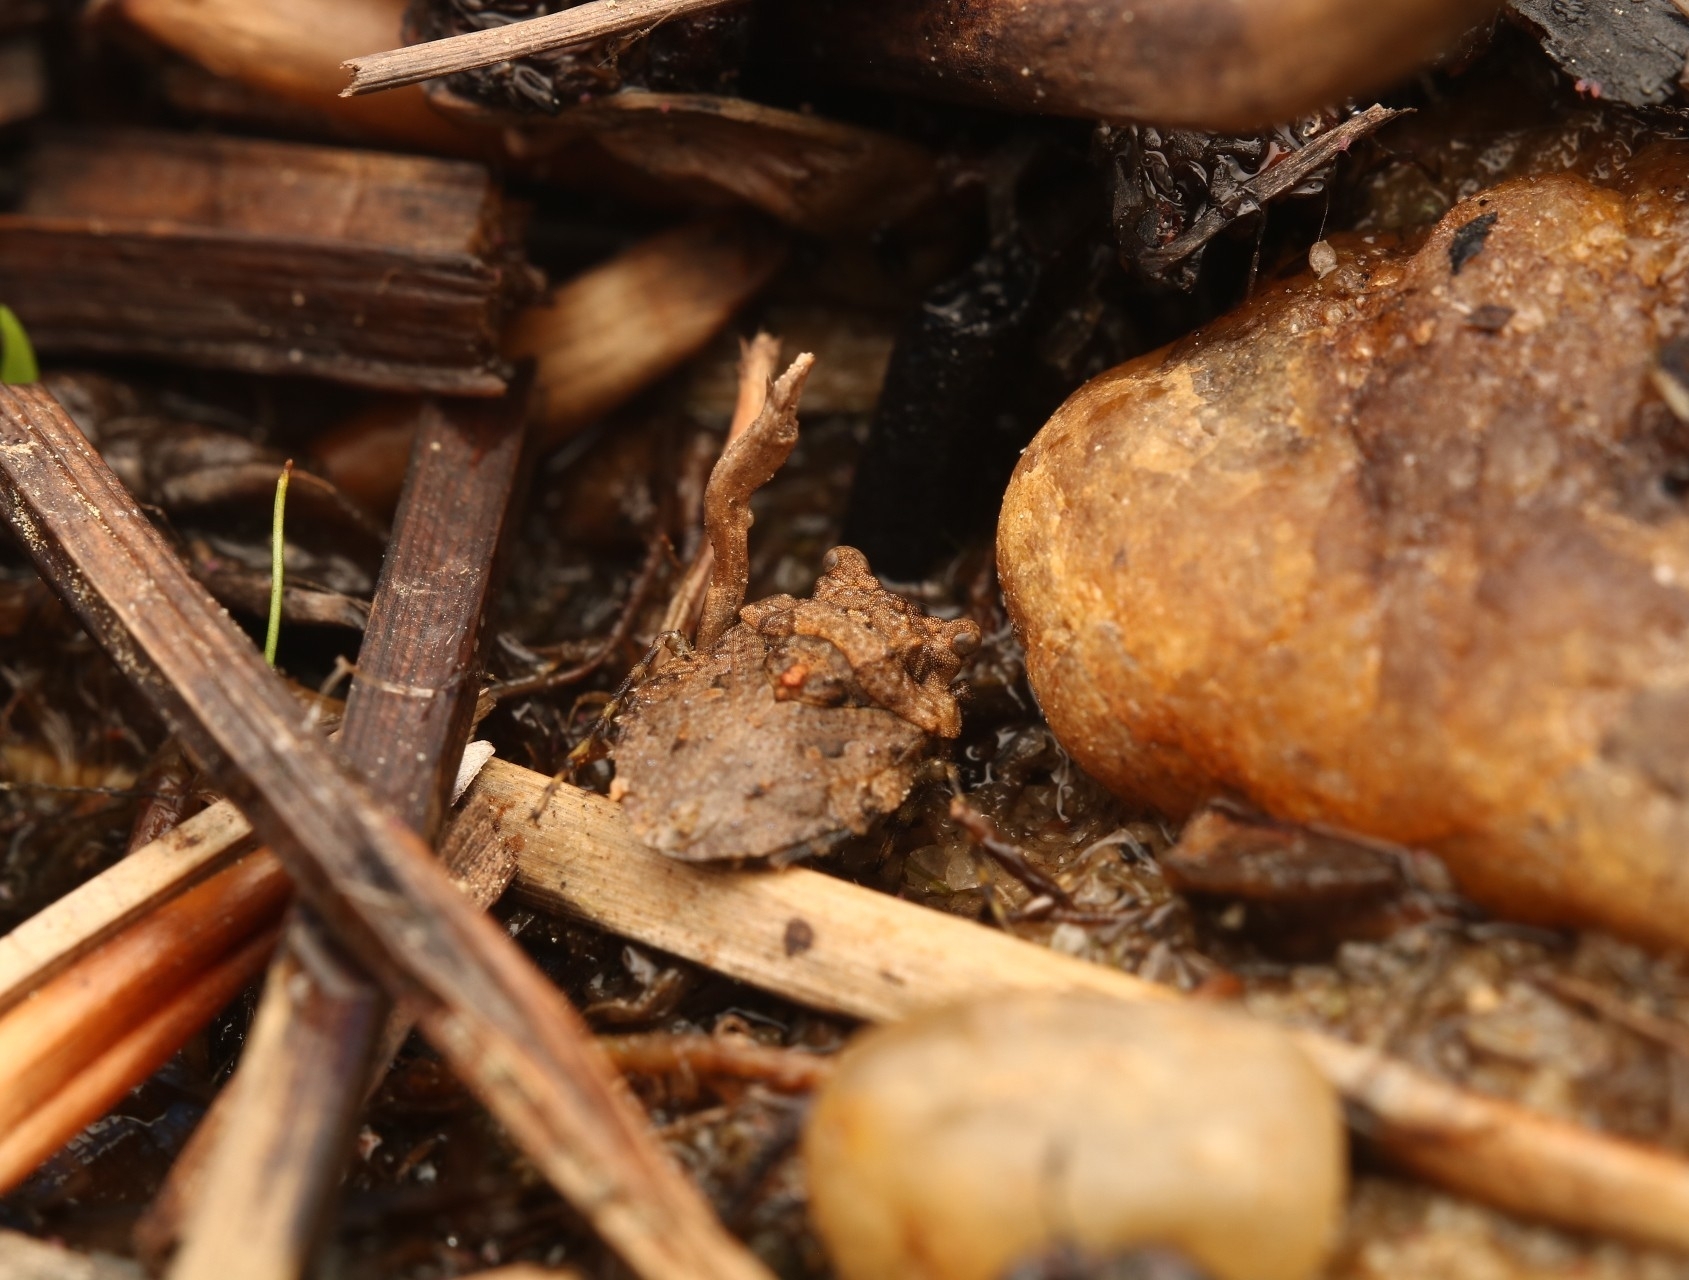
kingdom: Animalia
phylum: Arthropoda
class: Insecta
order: Hemiptera
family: Gelastocoridae
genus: Gelastocoris
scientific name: Gelastocoris oculatus
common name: Toad bug
